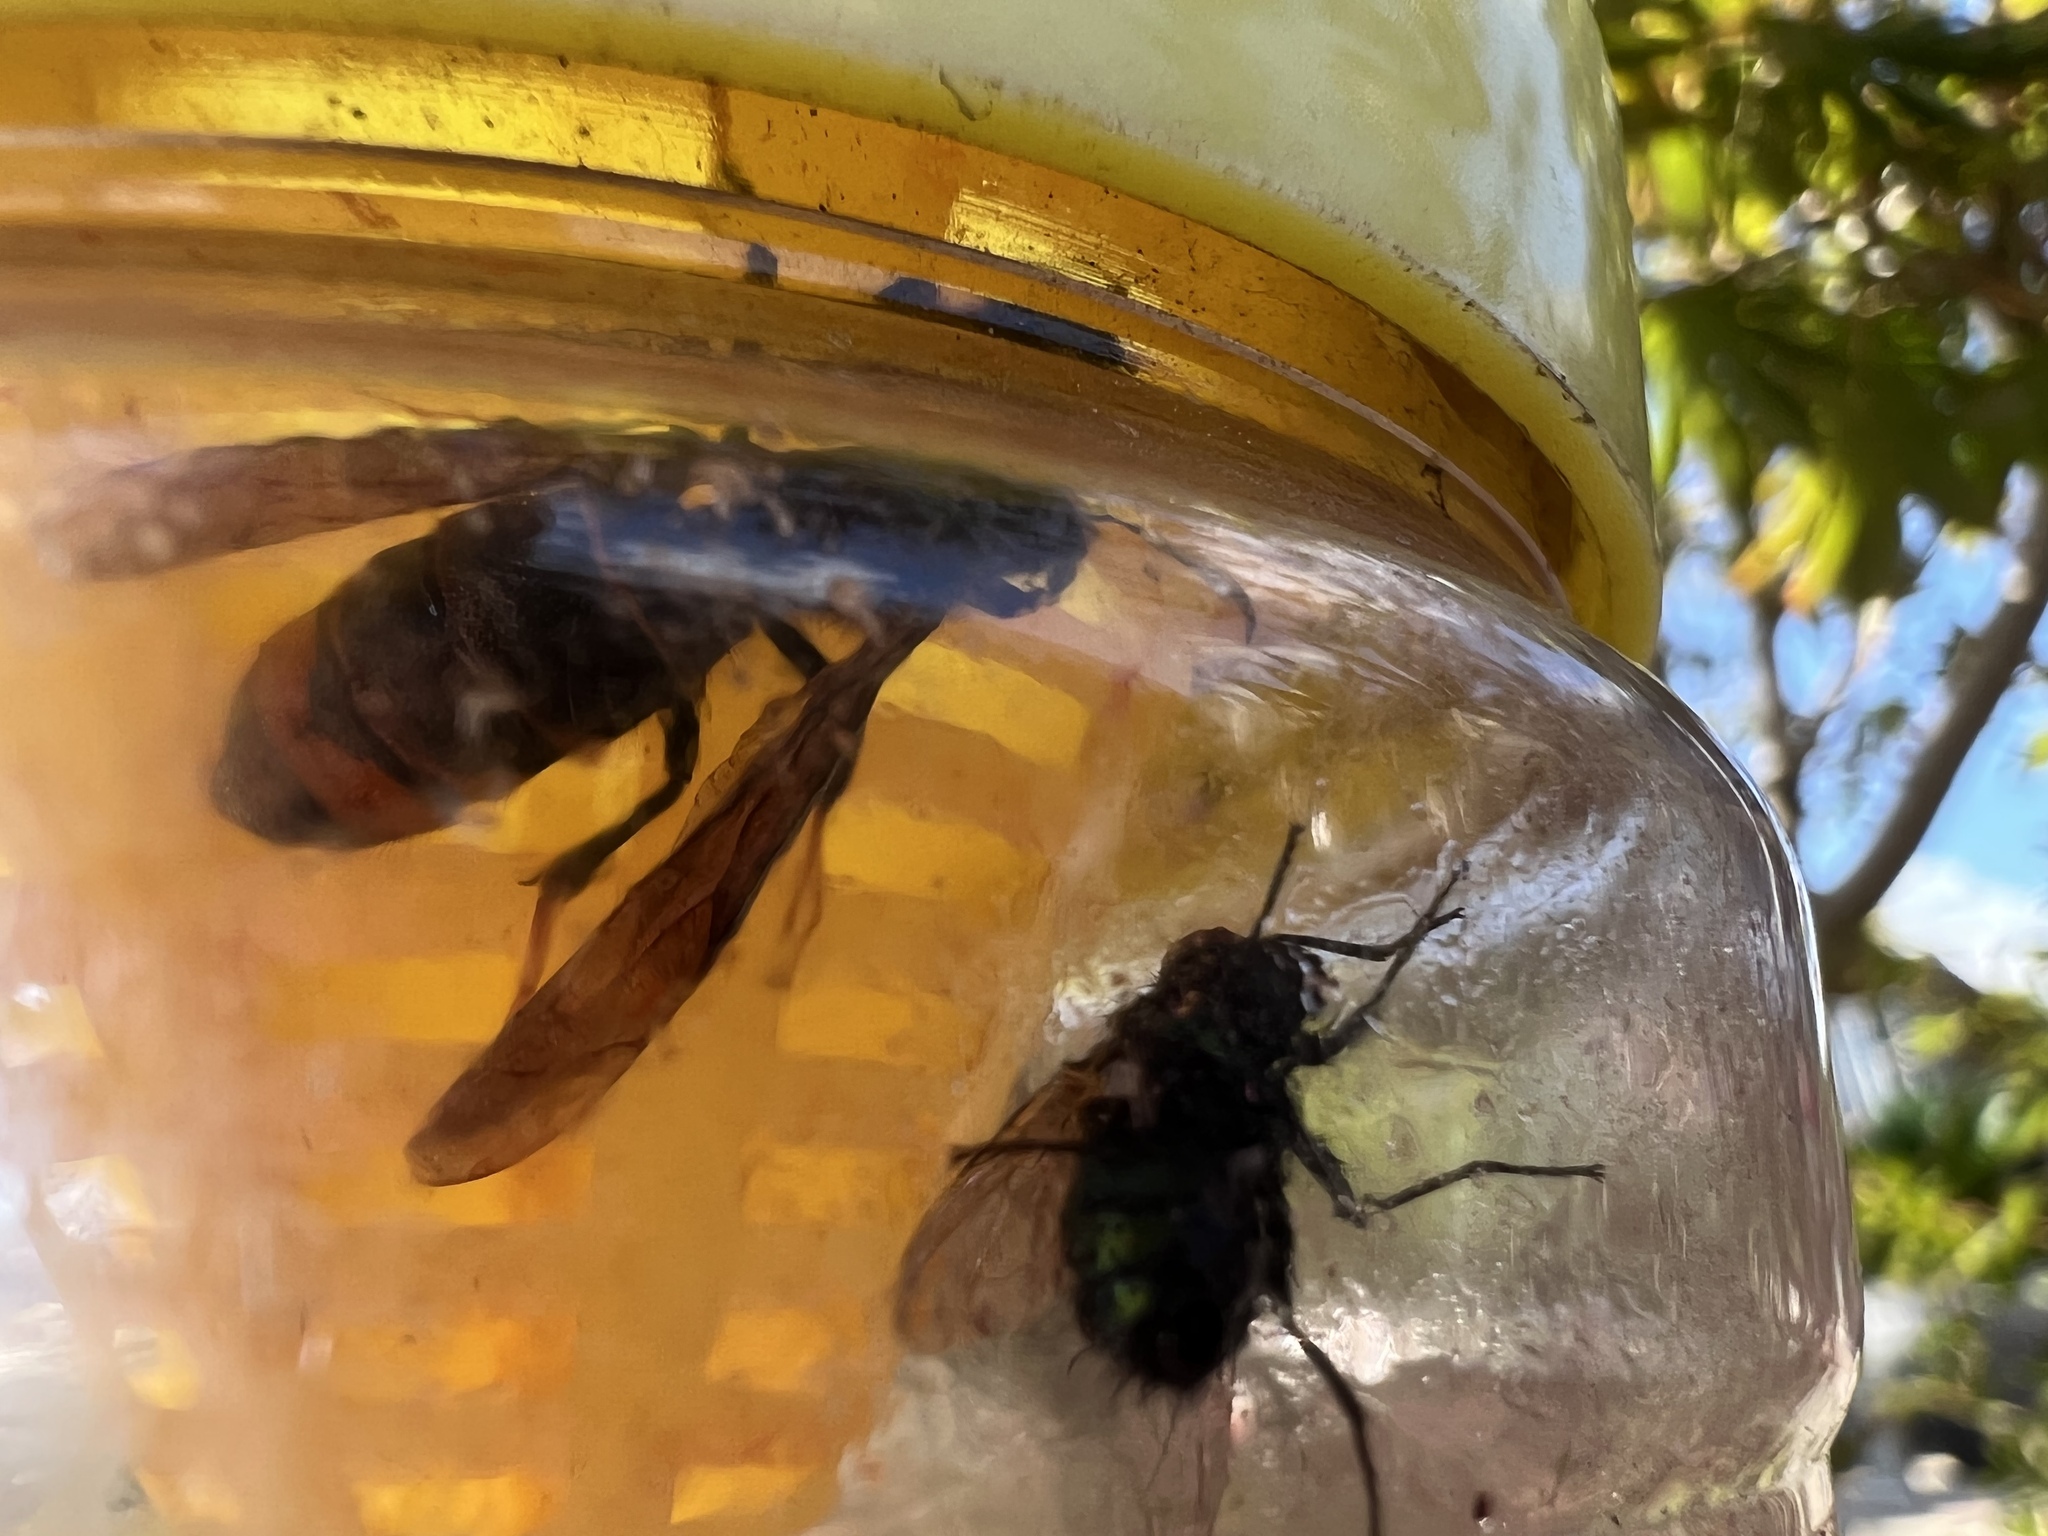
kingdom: Animalia
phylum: Arthropoda
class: Insecta
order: Hymenoptera
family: Vespidae
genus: Vespa
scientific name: Vespa velutina
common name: Asian hornet
